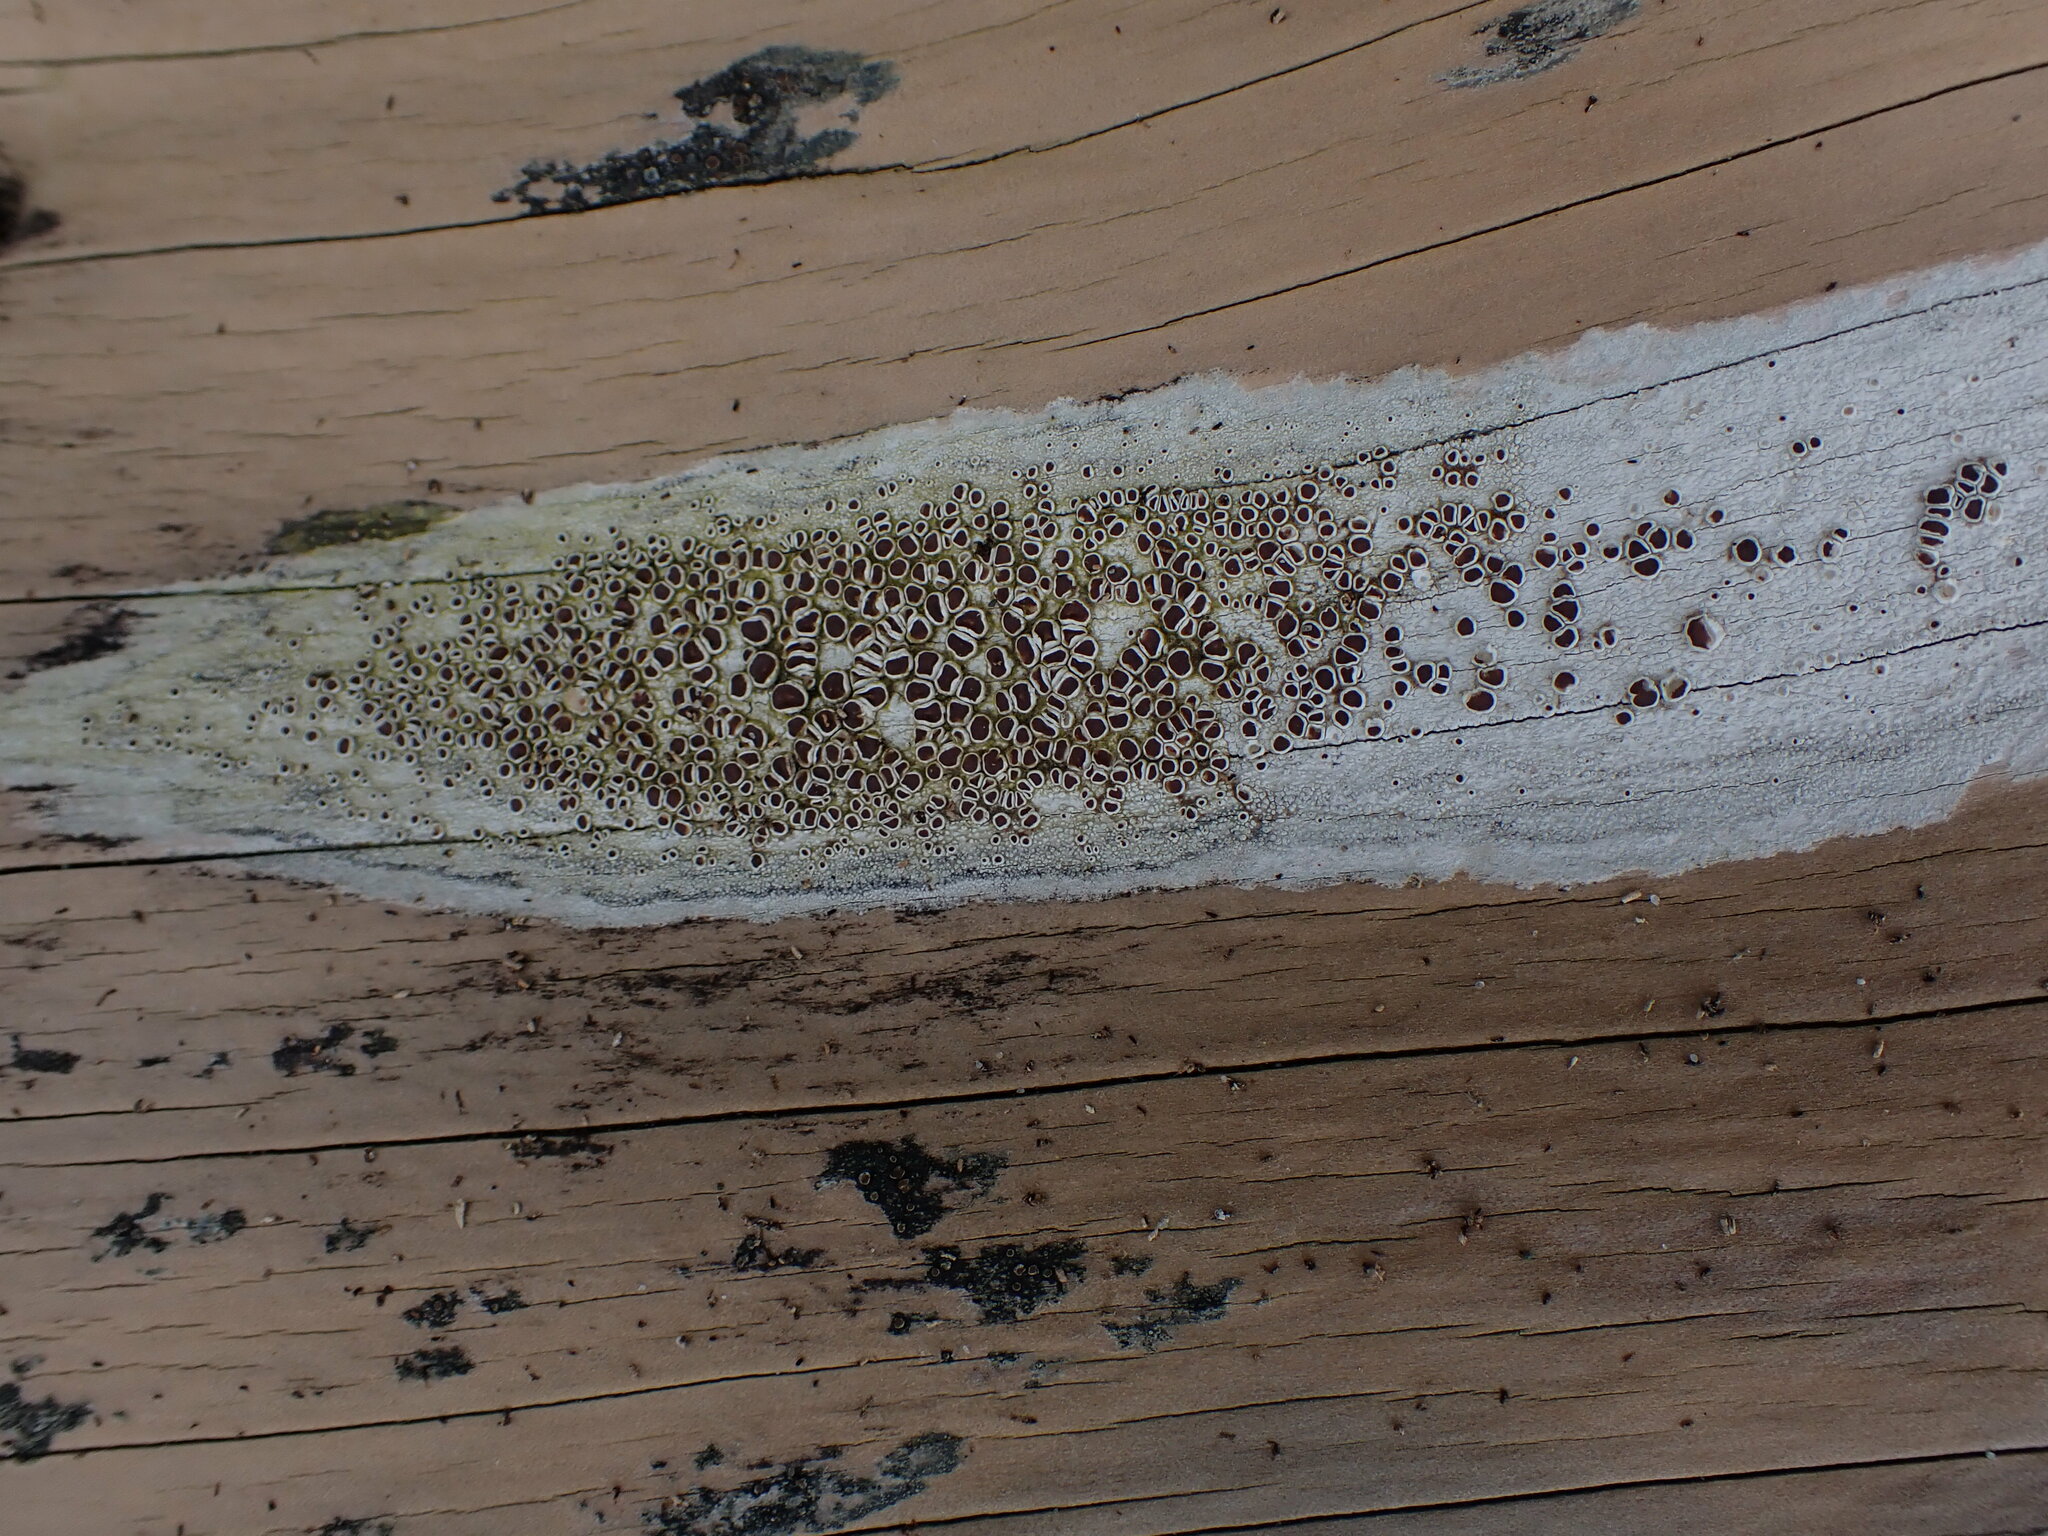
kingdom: Fungi
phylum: Ascomycota
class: Lecanoromycetes
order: Lecanorales
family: Lecanoraceae
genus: Lecanora
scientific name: Lecanora xylophila
